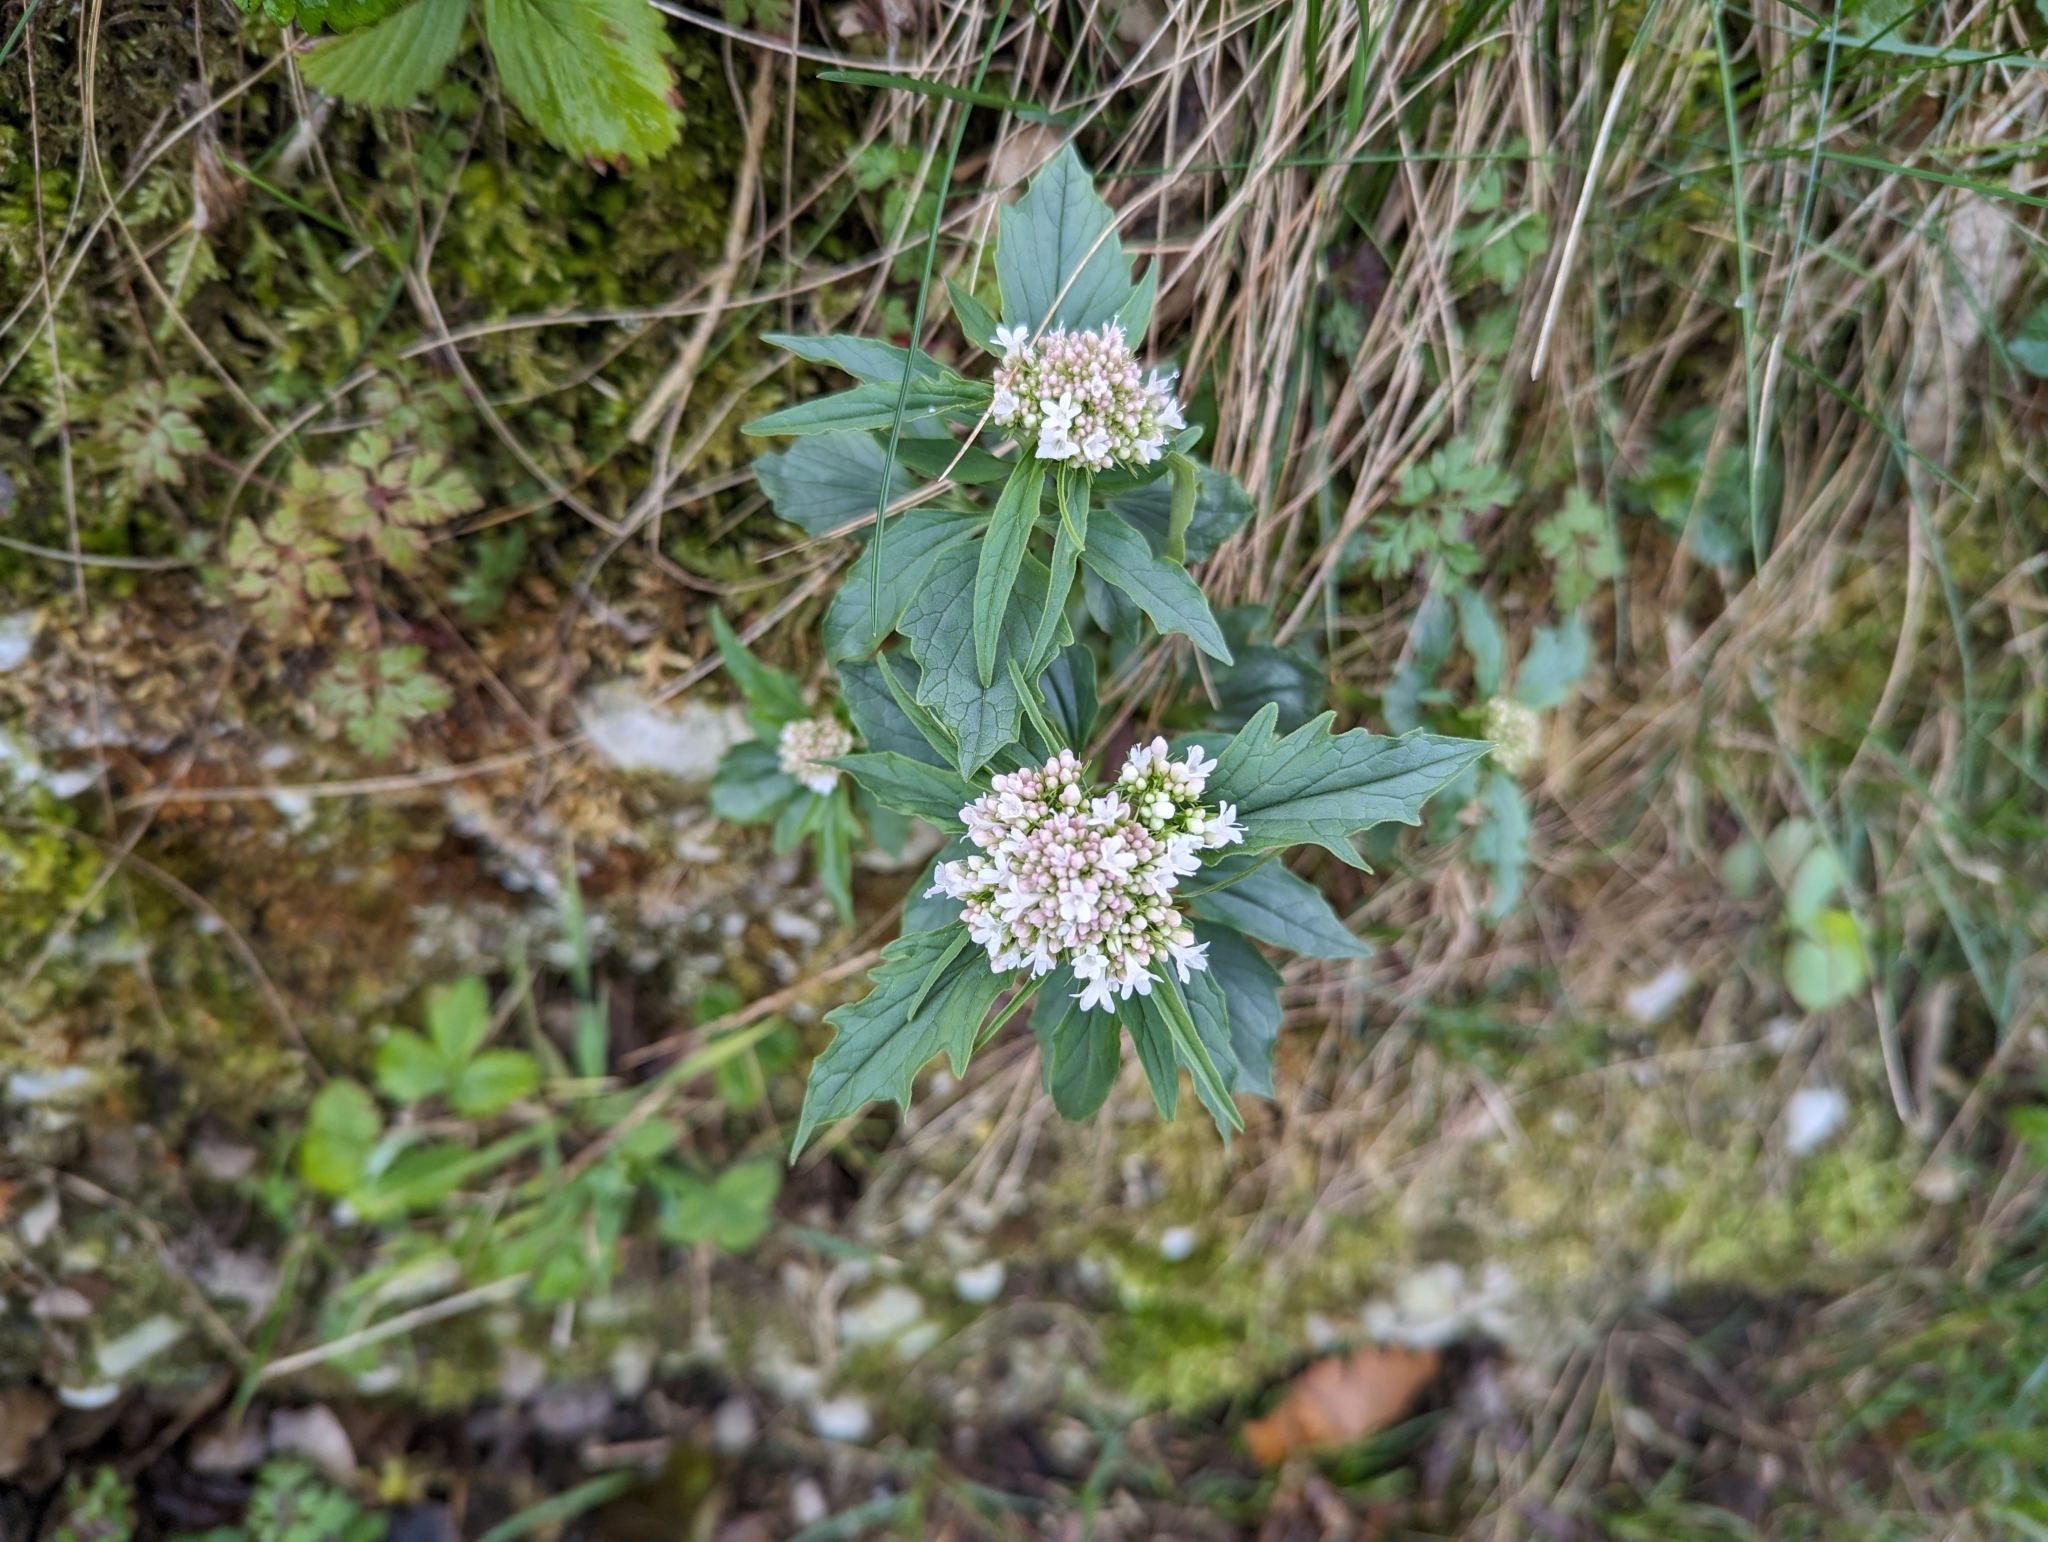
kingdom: Plantae
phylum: Tracheophyta
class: Magnoliopsida
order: Dipsacales
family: Caprifoliaceae
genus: Valeriana
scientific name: Valeriana tripteris
